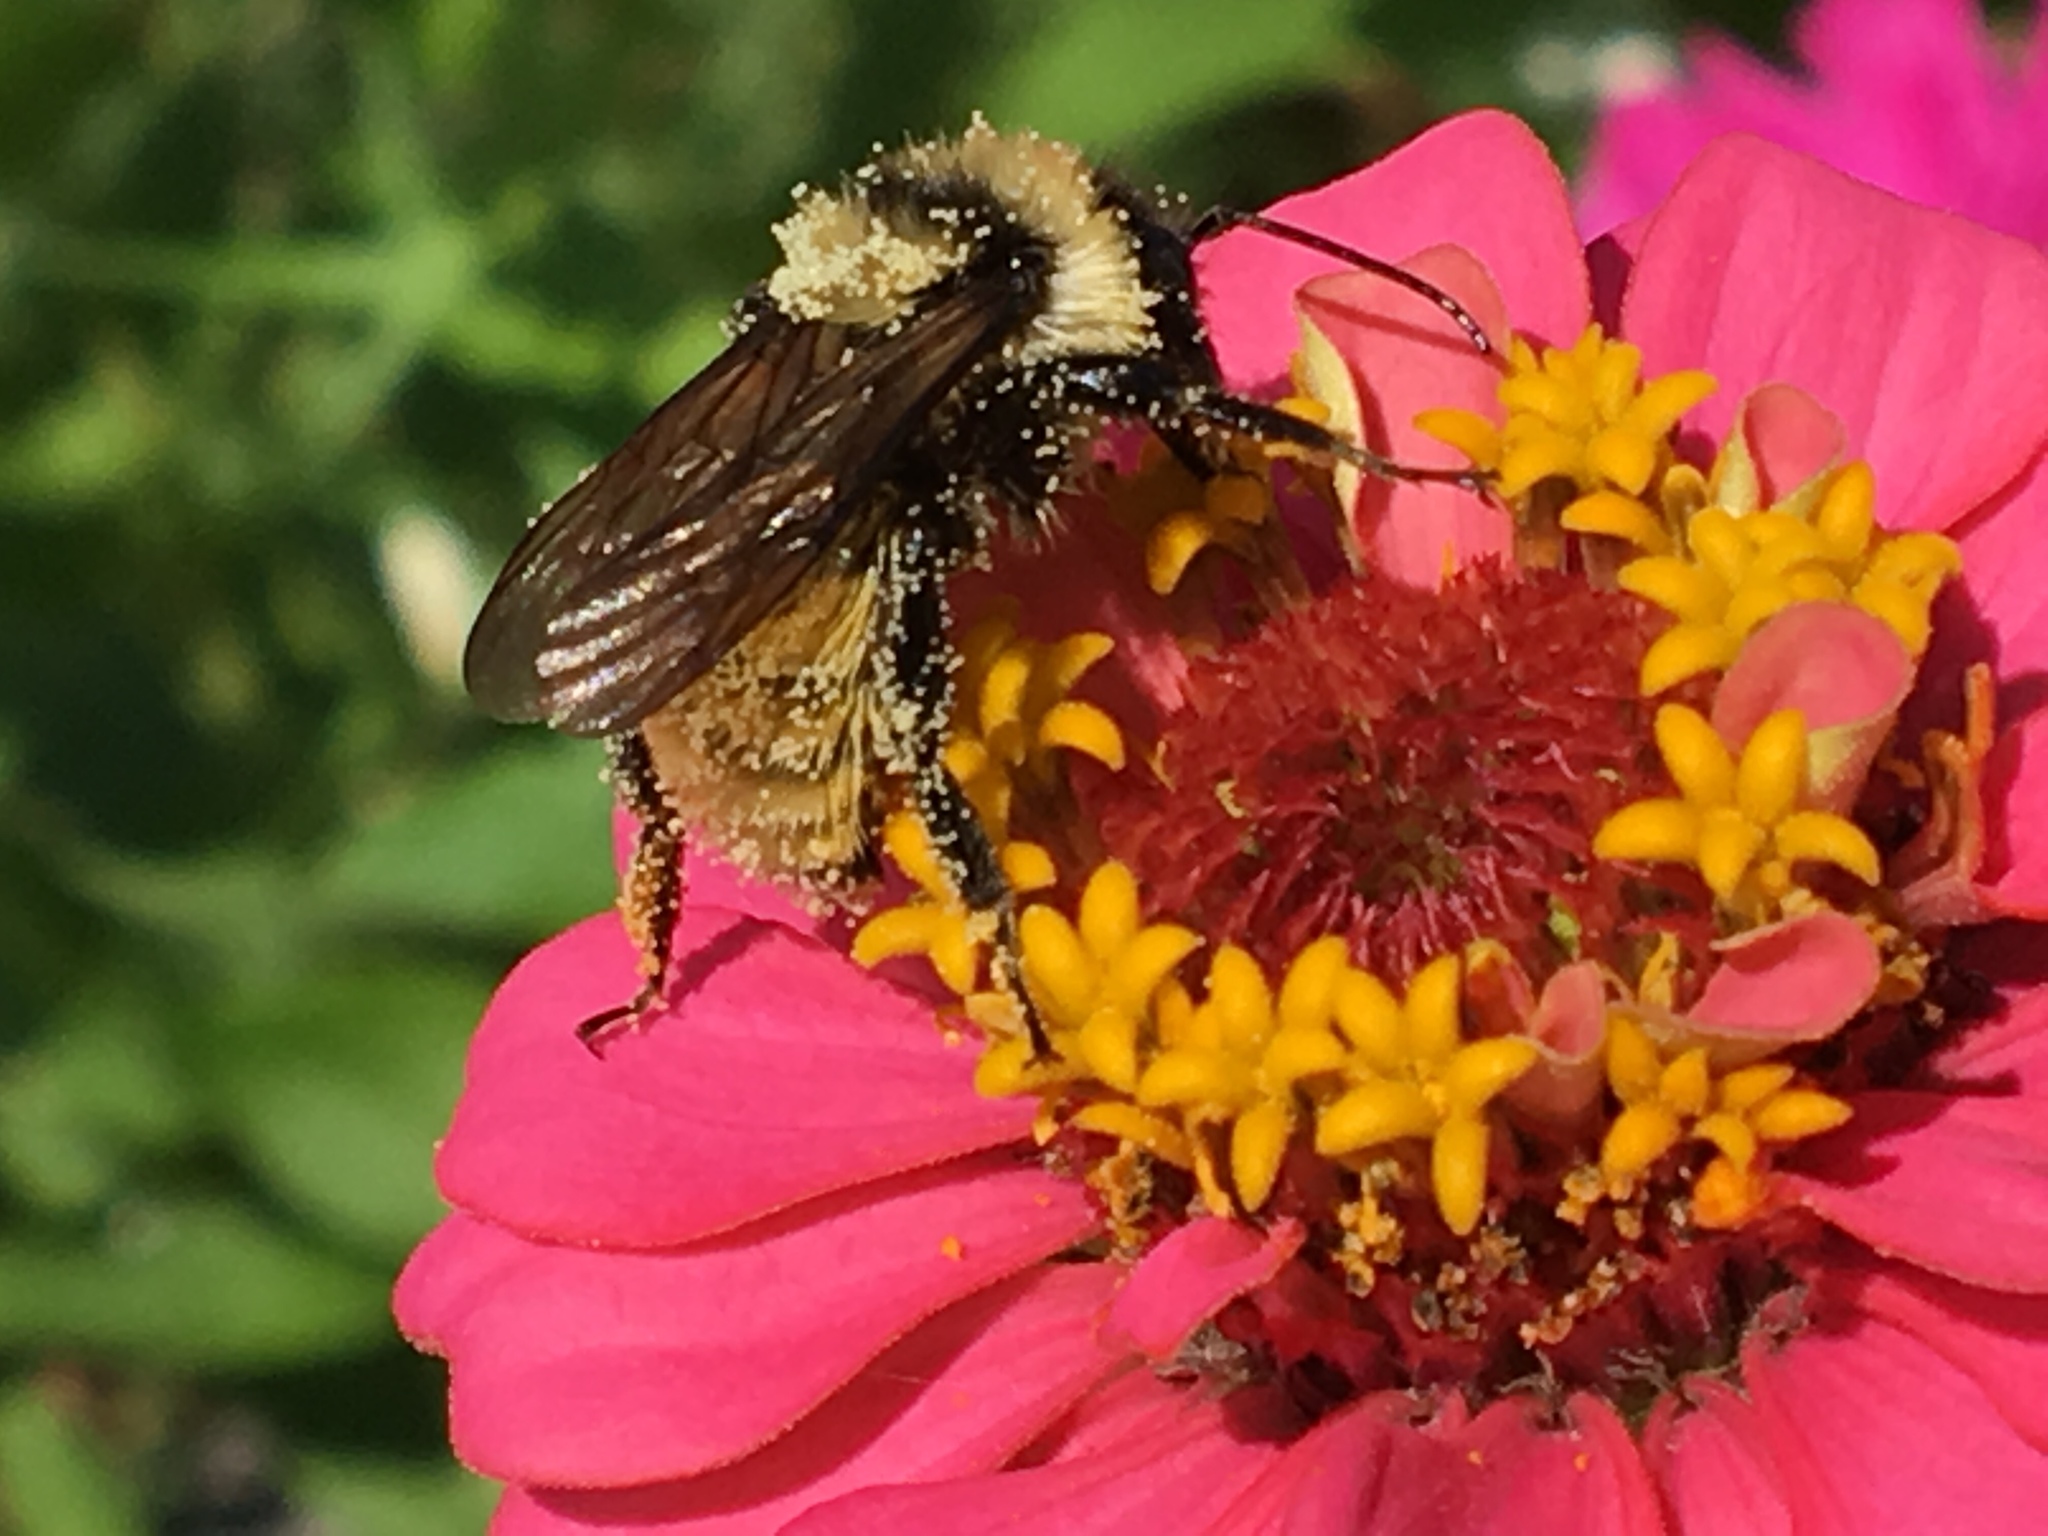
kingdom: Animalia
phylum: Arthropoda
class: Insecta
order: Hymenoptera
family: Apidae
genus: Bombus
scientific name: Bombus fervidus
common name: Yellow bumble bee
